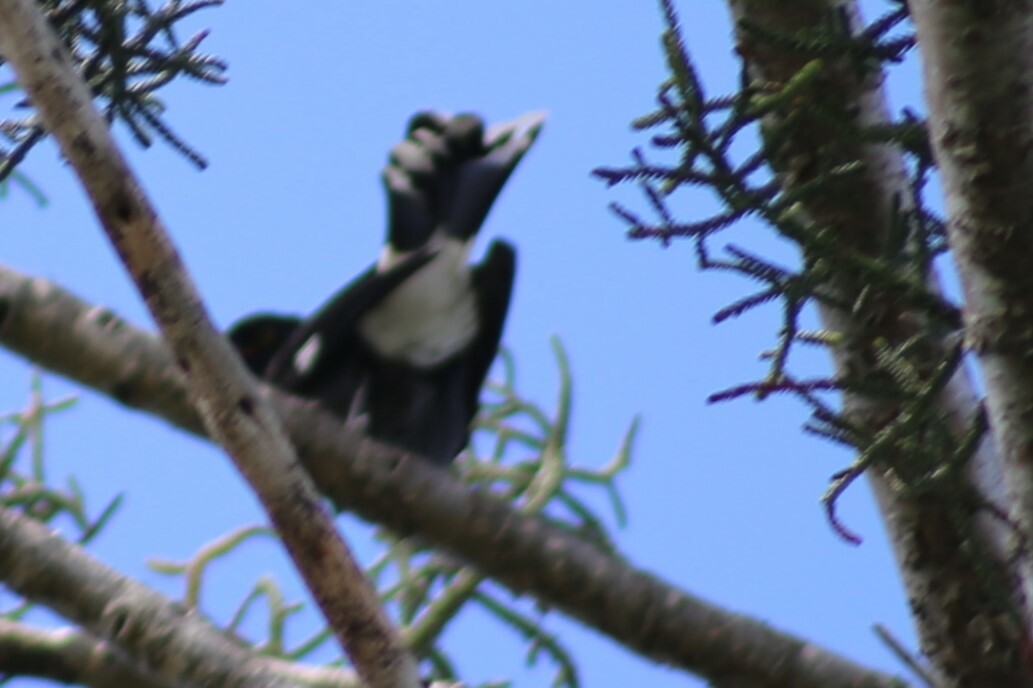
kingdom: Animalia
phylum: Chordata
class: Aves
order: Passeriformes
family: Cracticidae
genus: Strepera
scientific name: Strepera graculina
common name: Pied currawong
